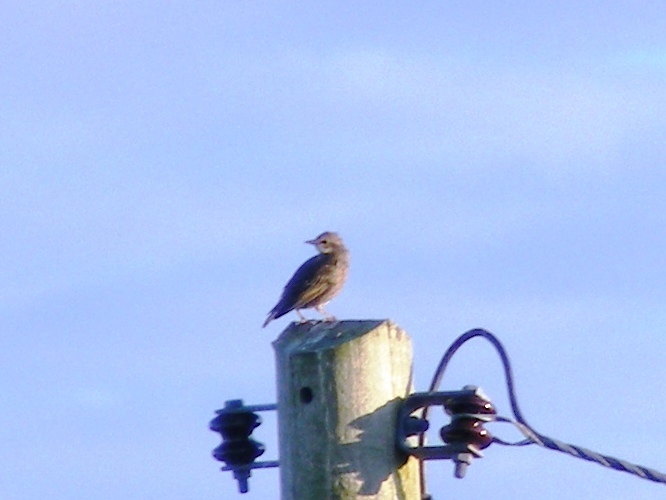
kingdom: Animalia
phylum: Chordata
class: Aves
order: Passeriformes
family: Sturnidae
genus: Sturnus
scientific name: Sturnus vulgaris
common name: Common starling
